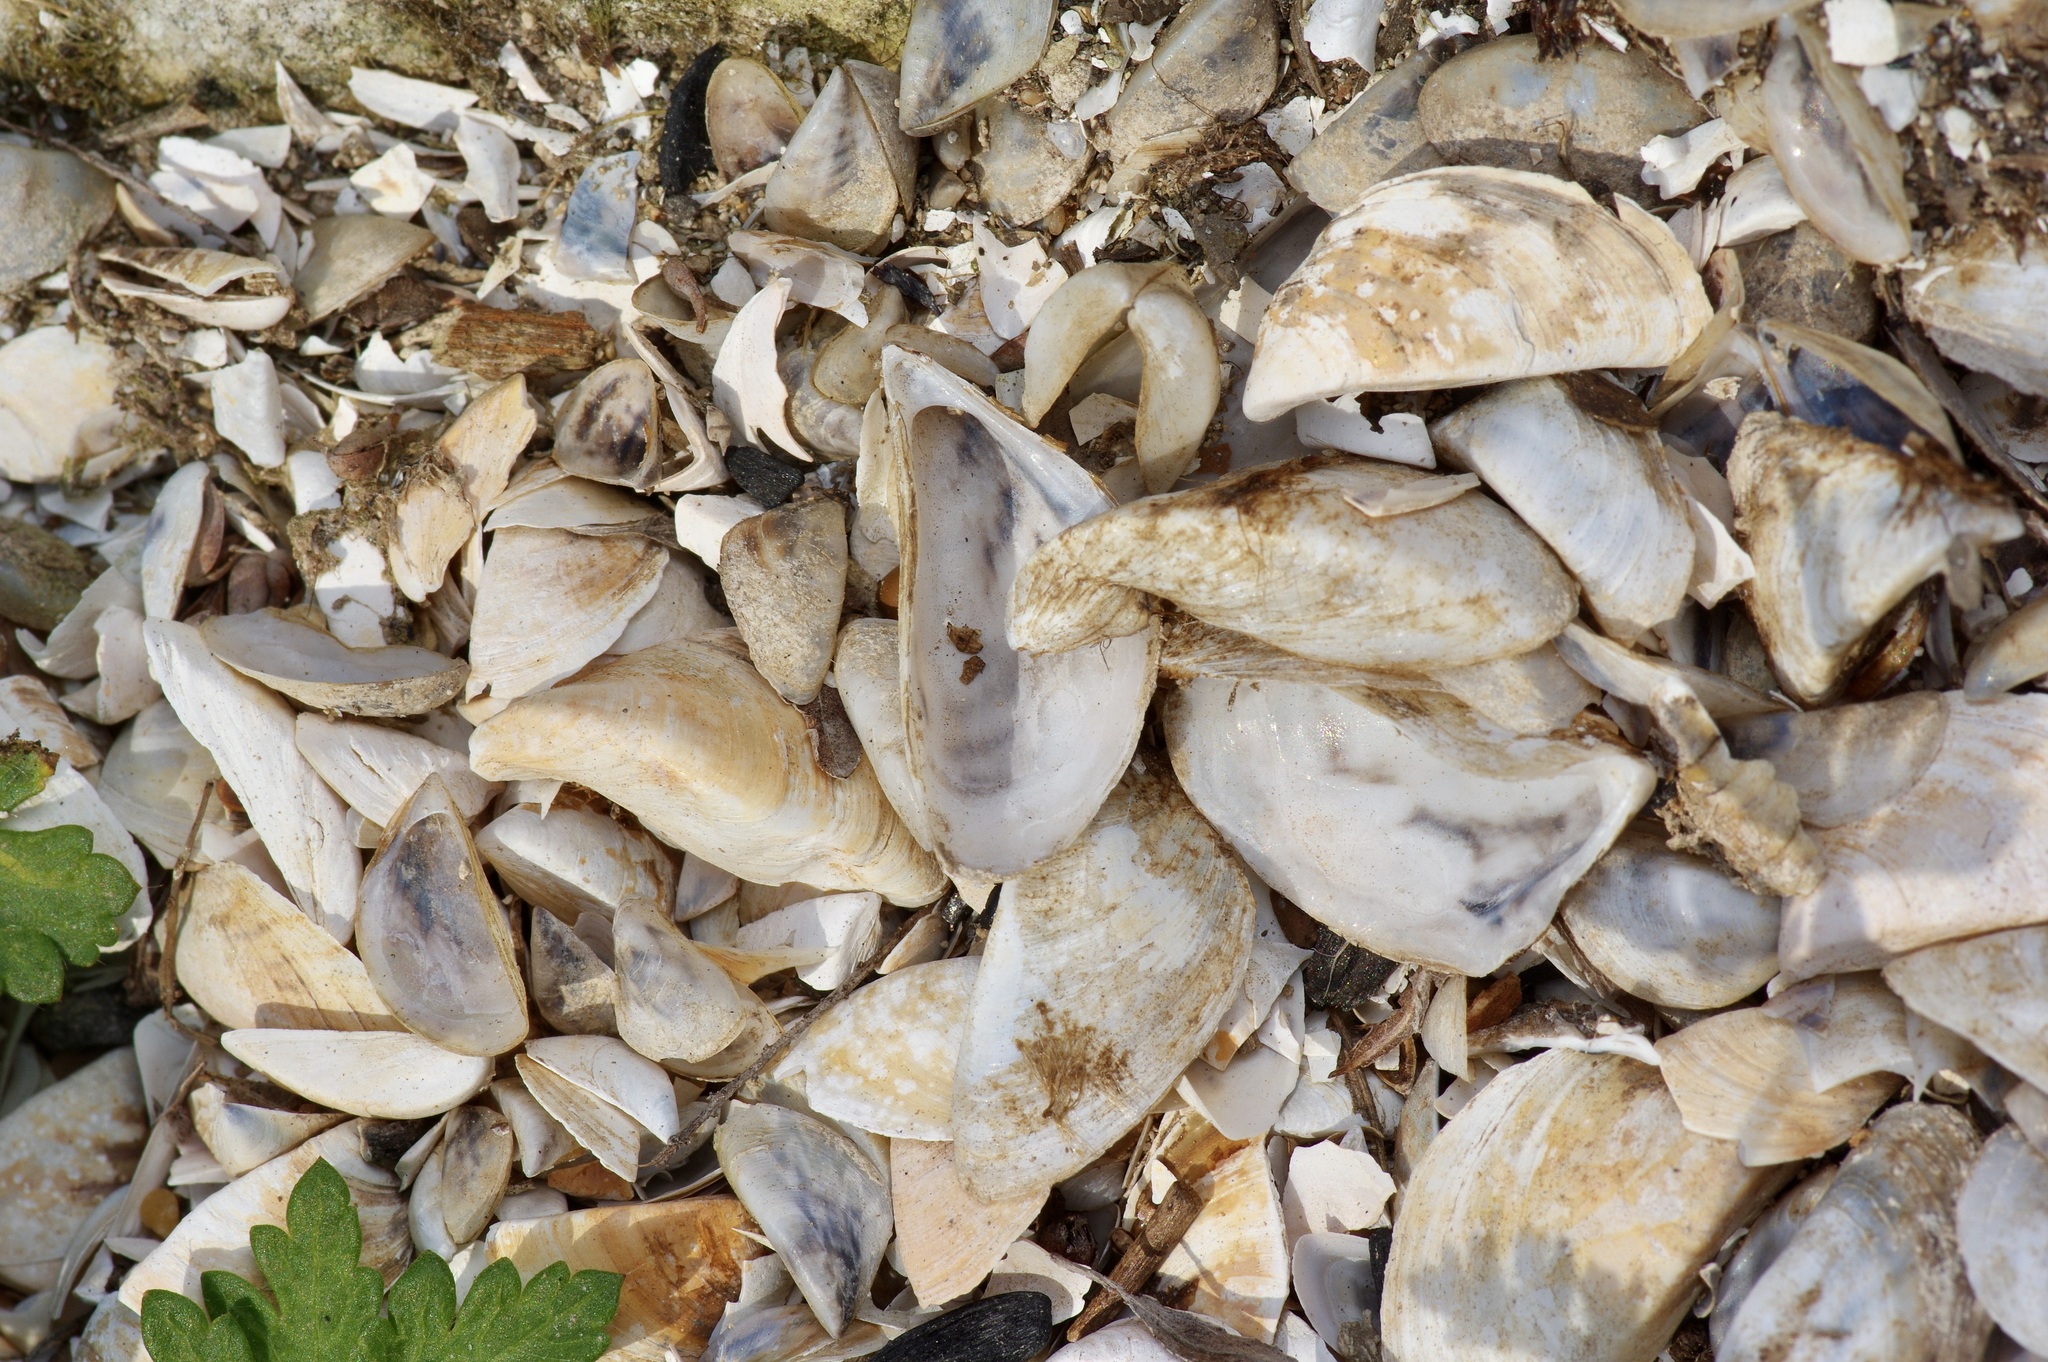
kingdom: Animalia
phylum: Mollusca
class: Bivalvia
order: Myida
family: Dreissenidae
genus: Dreissena
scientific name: Dreissena polymorpha
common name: Zebra mussel
